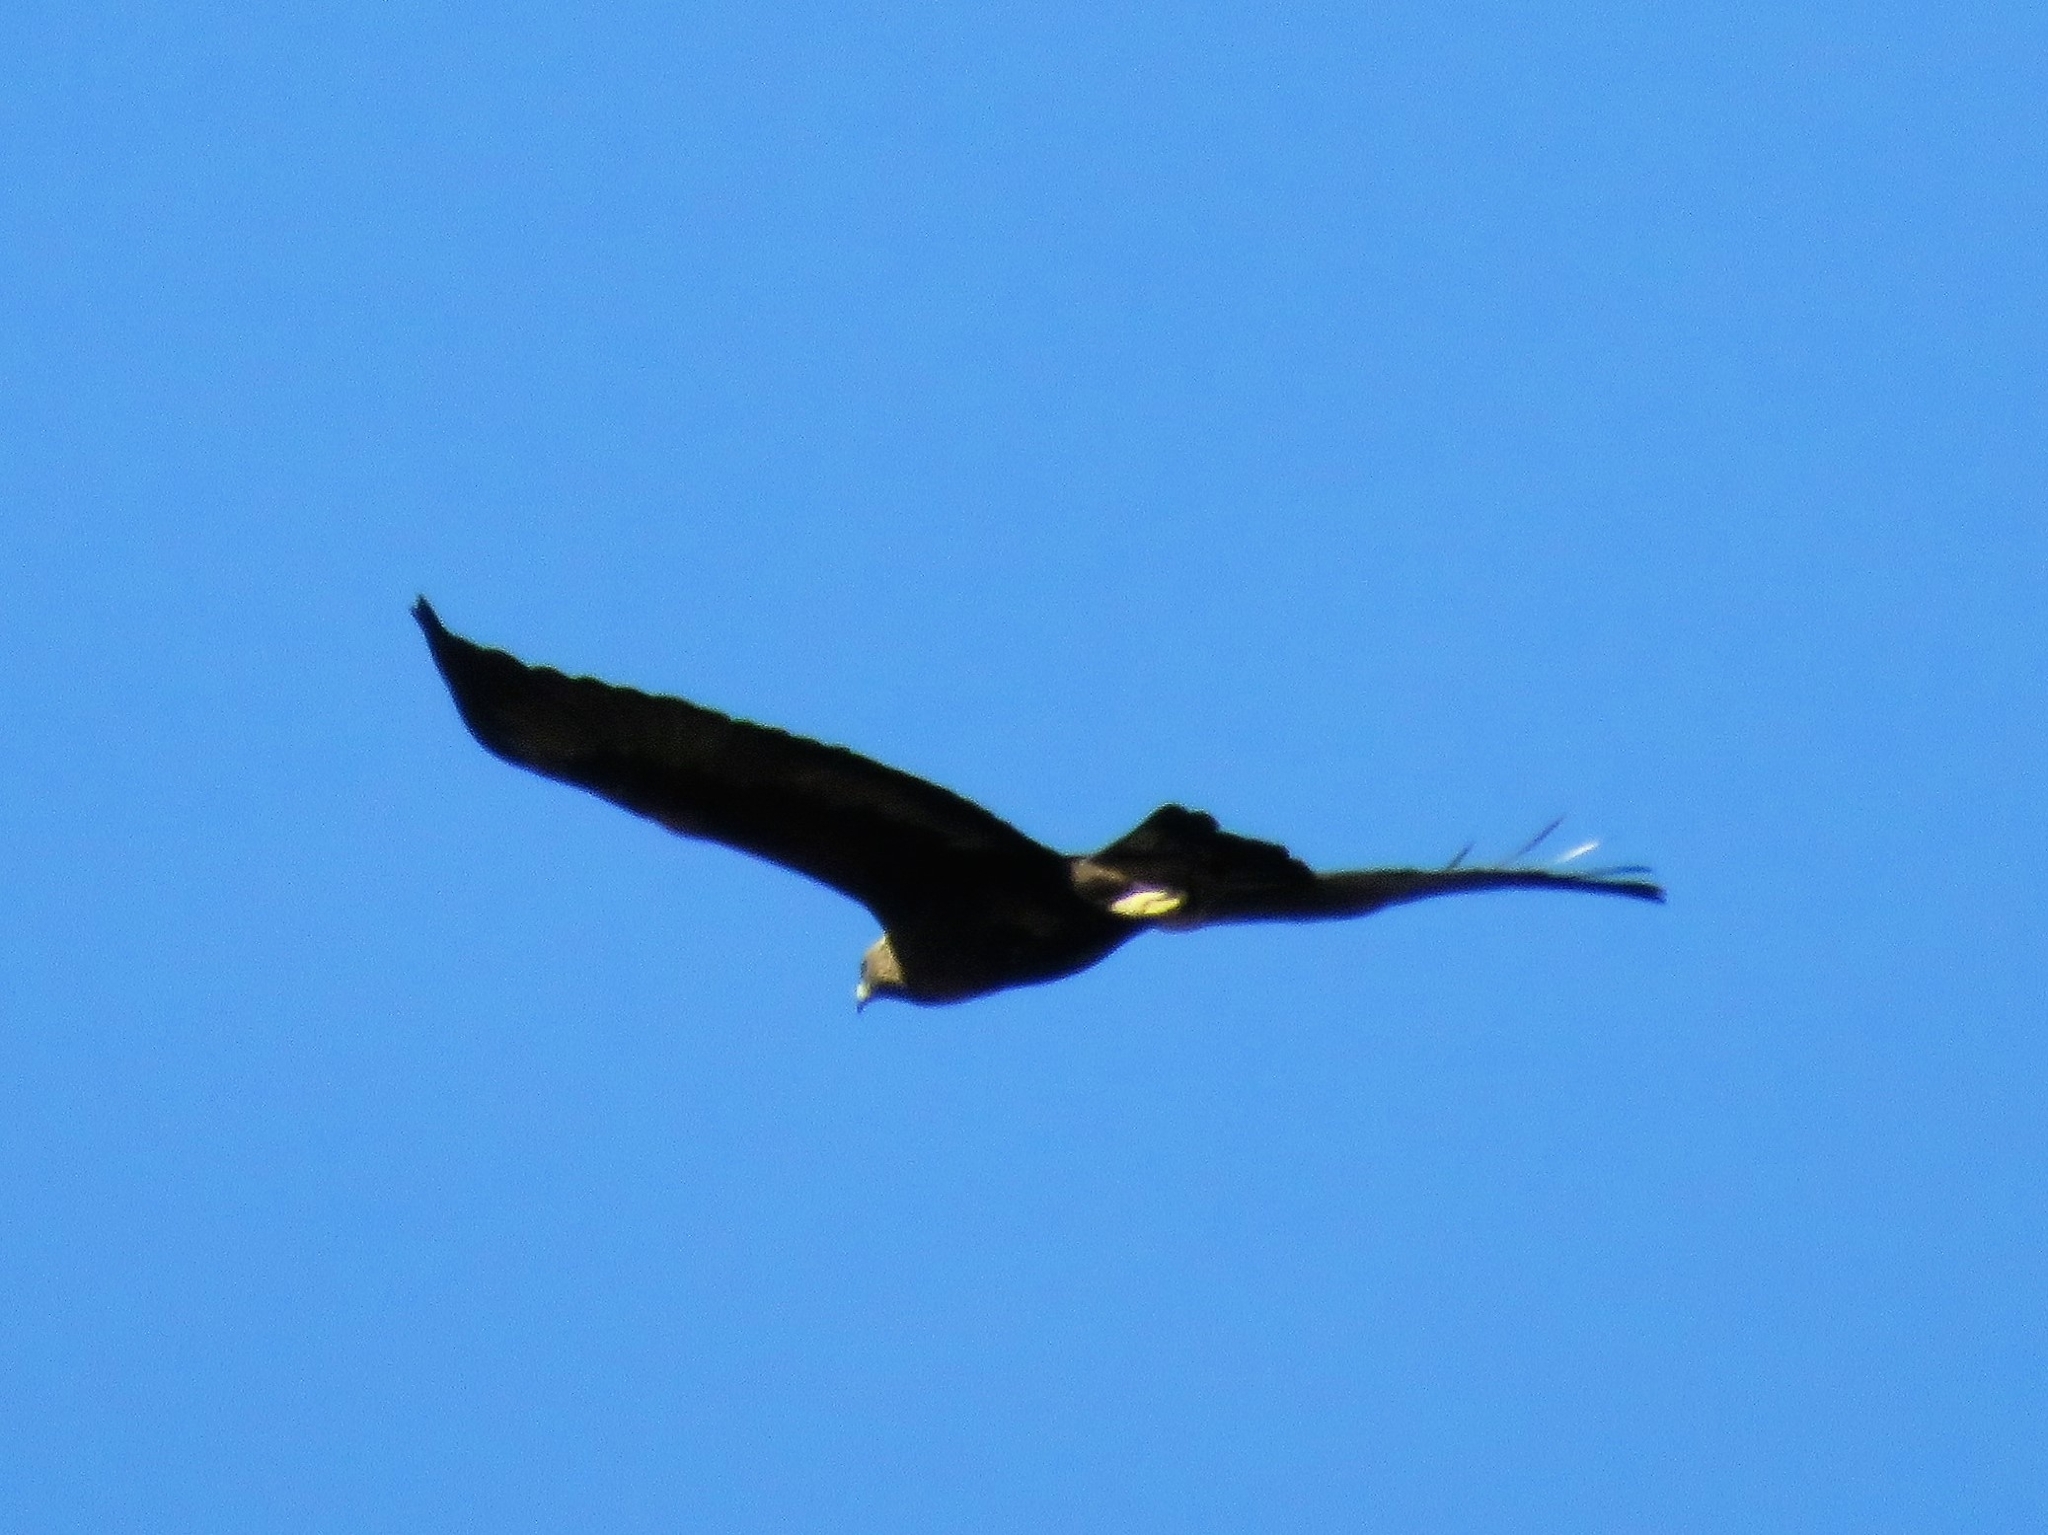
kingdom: Animalia
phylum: Chordata
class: Aves
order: Accipitriformes
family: Accipitridae
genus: Aquila
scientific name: Aquila chrysaetos
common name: Golden eagle
